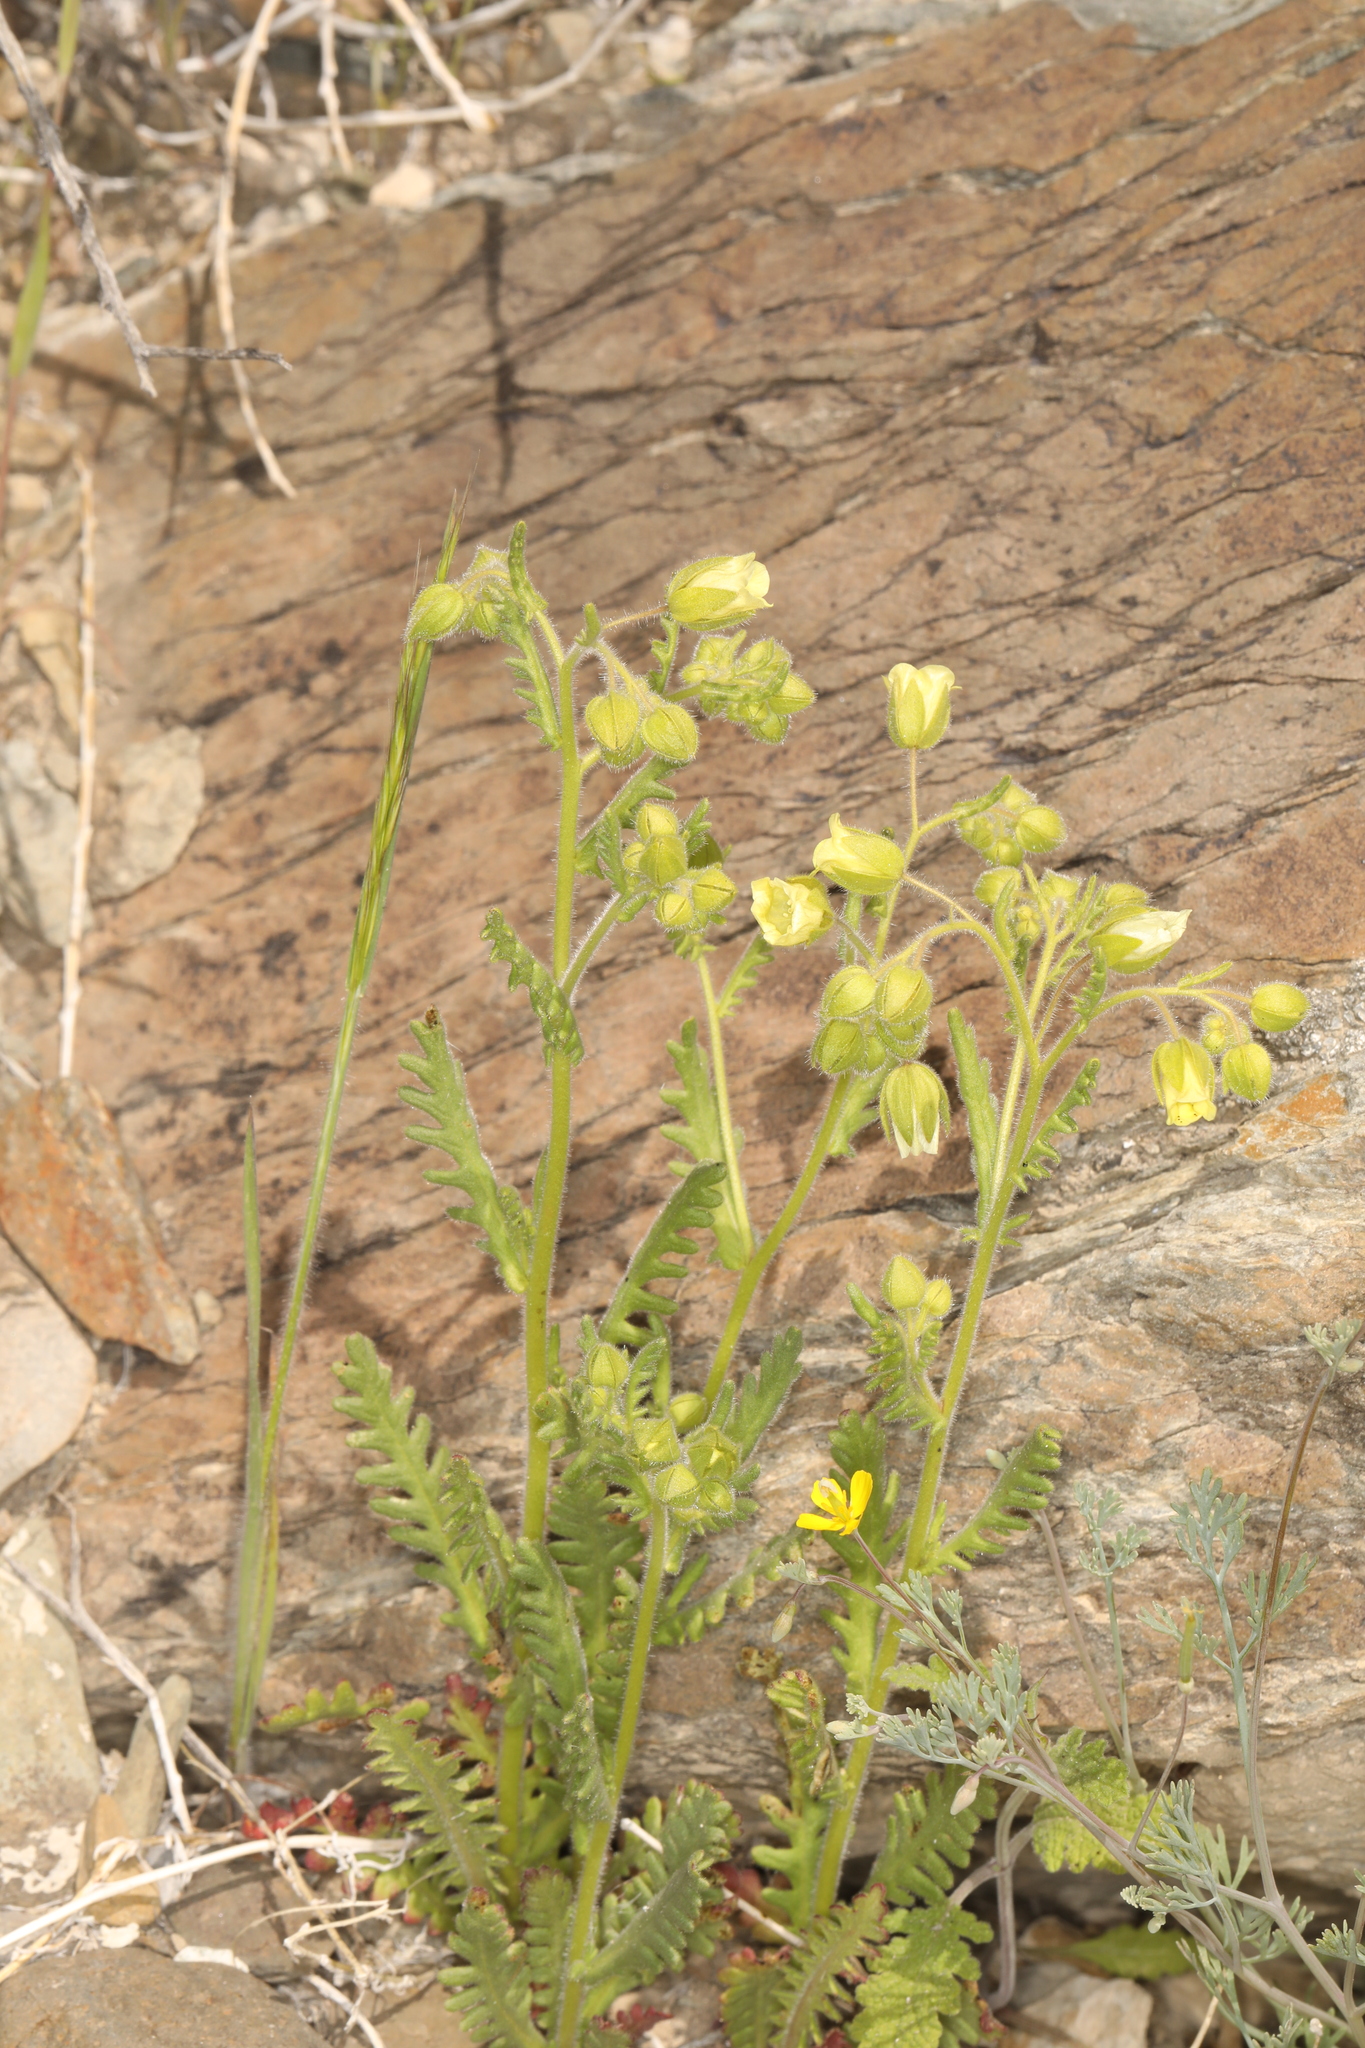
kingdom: Plantae
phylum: Tracheophyta
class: Magnoliopsida
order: Boraginales
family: Hydrophyllaceae
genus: Emmenanthe
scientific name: Emmenanthe penduliflora
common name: Whispering-bells
